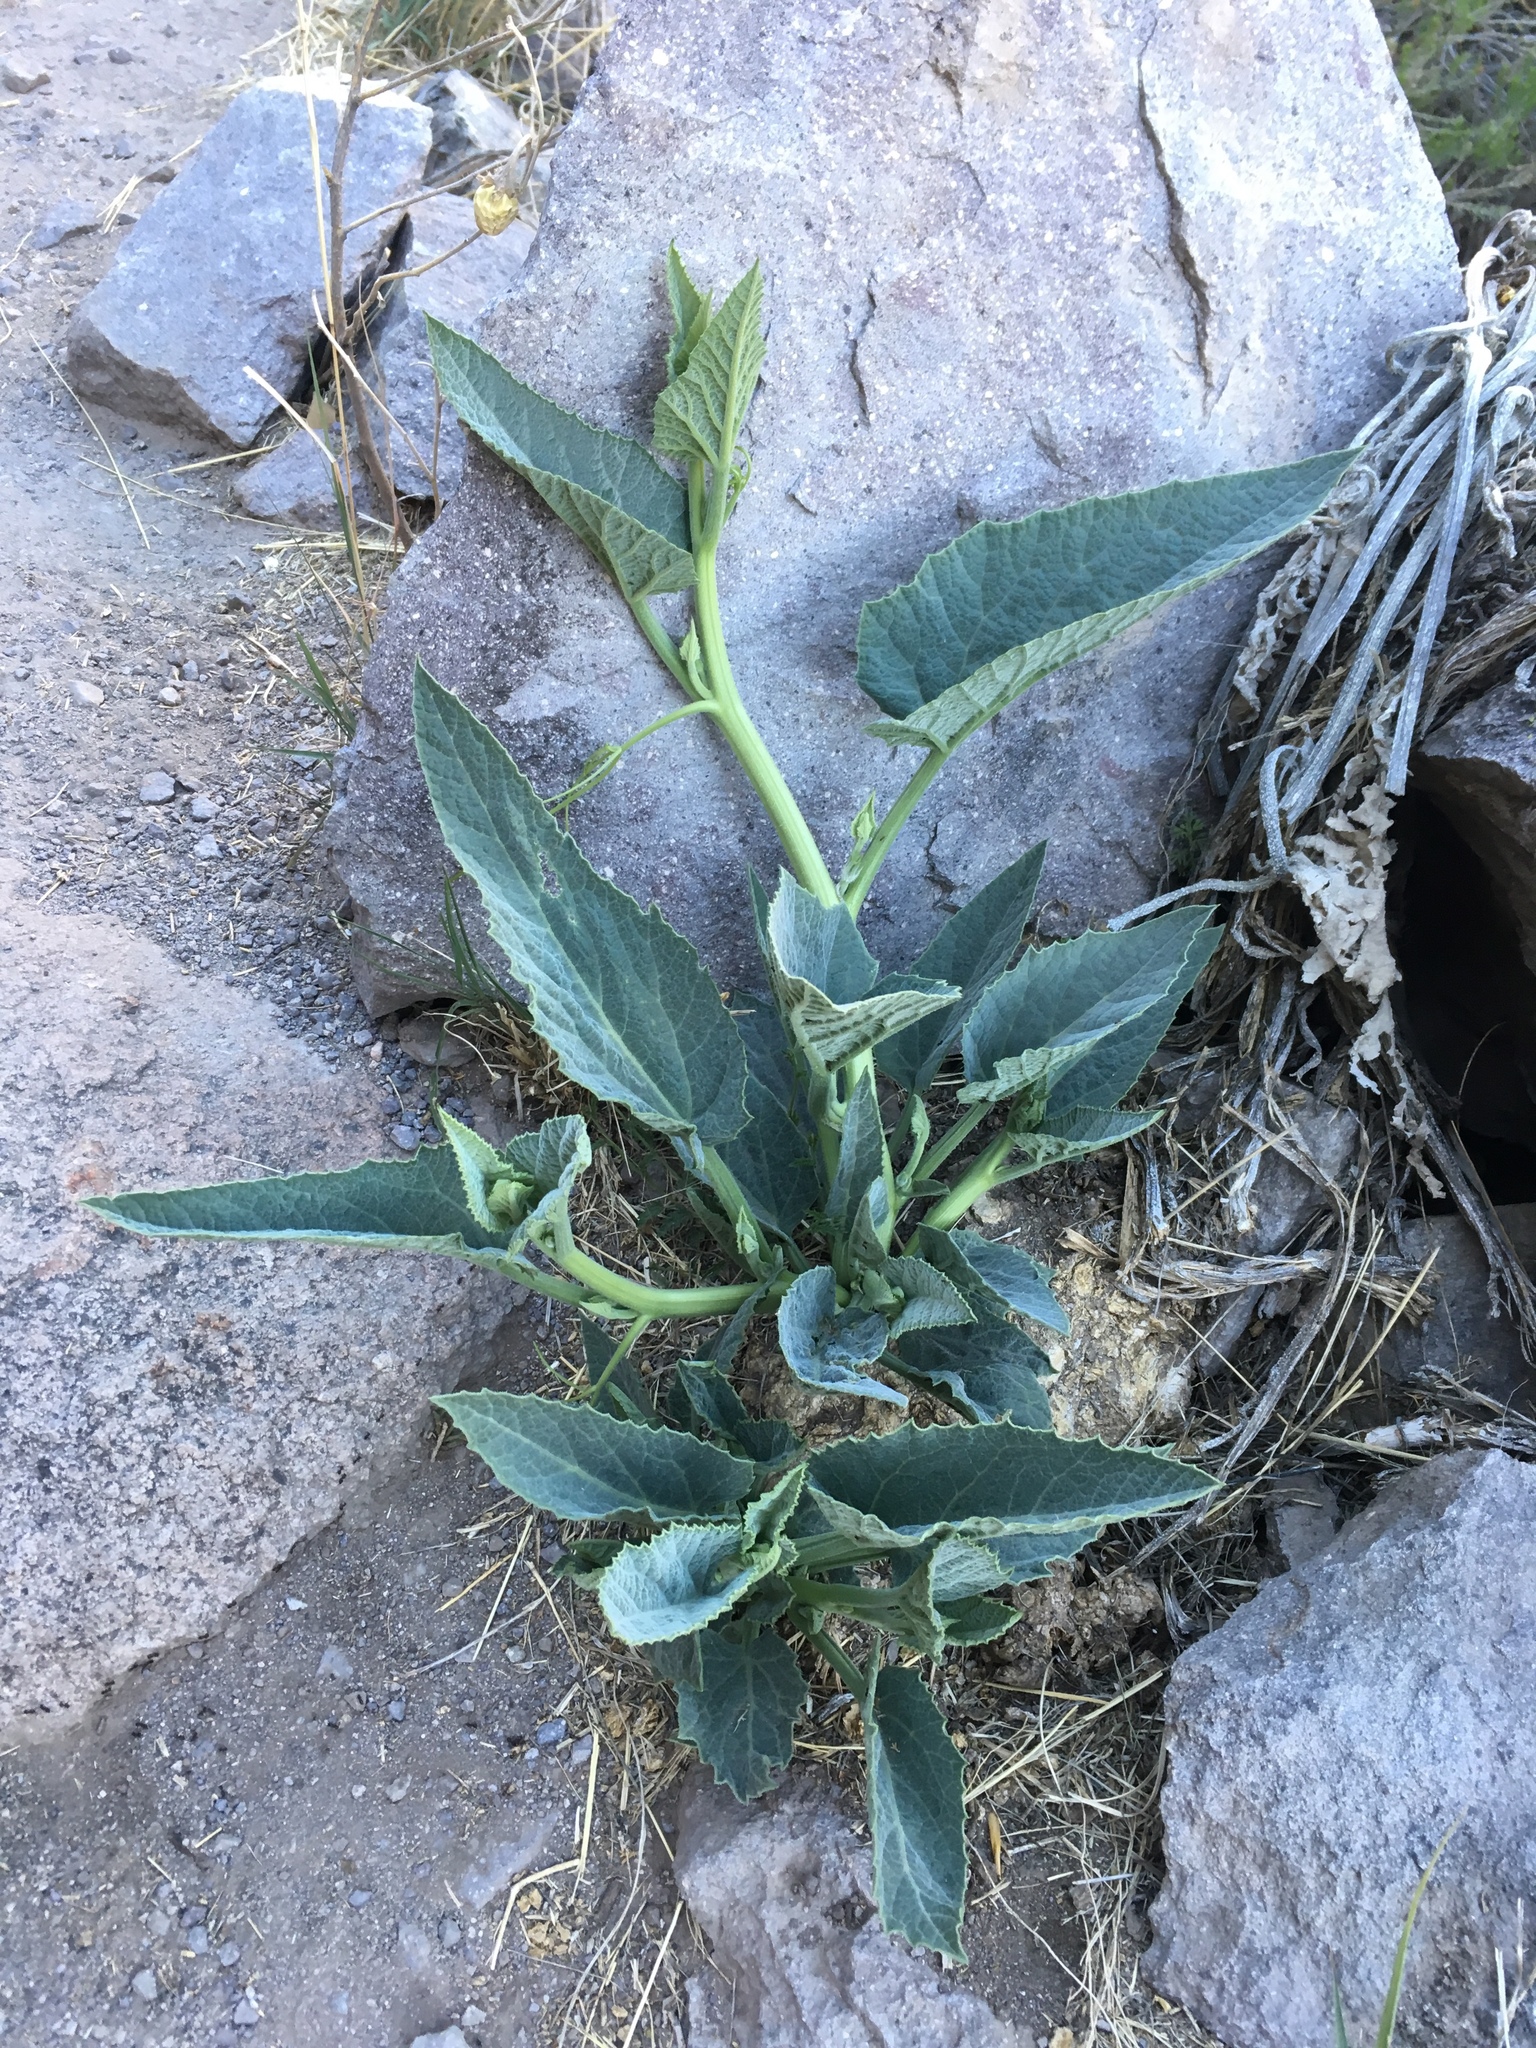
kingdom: Plantae
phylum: Tracheophyta
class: Magnoliopsida
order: Cucurbitales
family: Cucurbitaceae
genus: Cucurbita
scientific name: Cucurbita foetidissima
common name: Buffalo gourd
